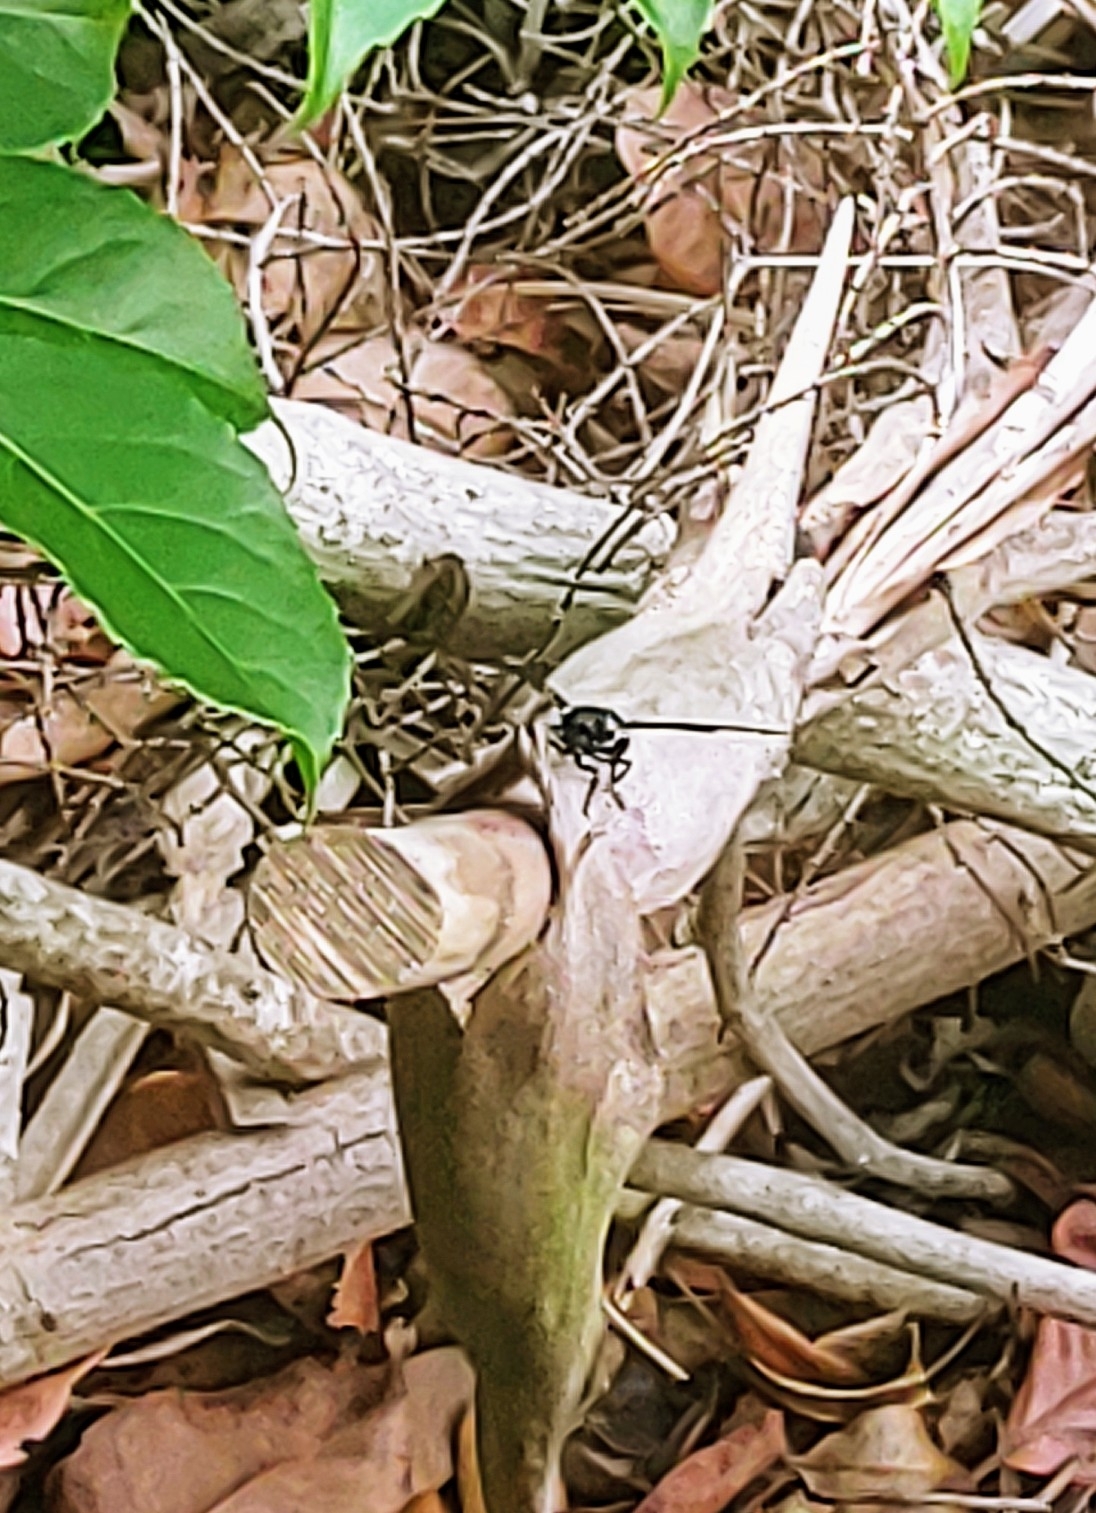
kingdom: Animalia
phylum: Arthropoda
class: Insecta
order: Lepidoptera
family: Erebidae
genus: Syntomeida
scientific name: Syntomeida epilais
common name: Polka-dot wasp moth
